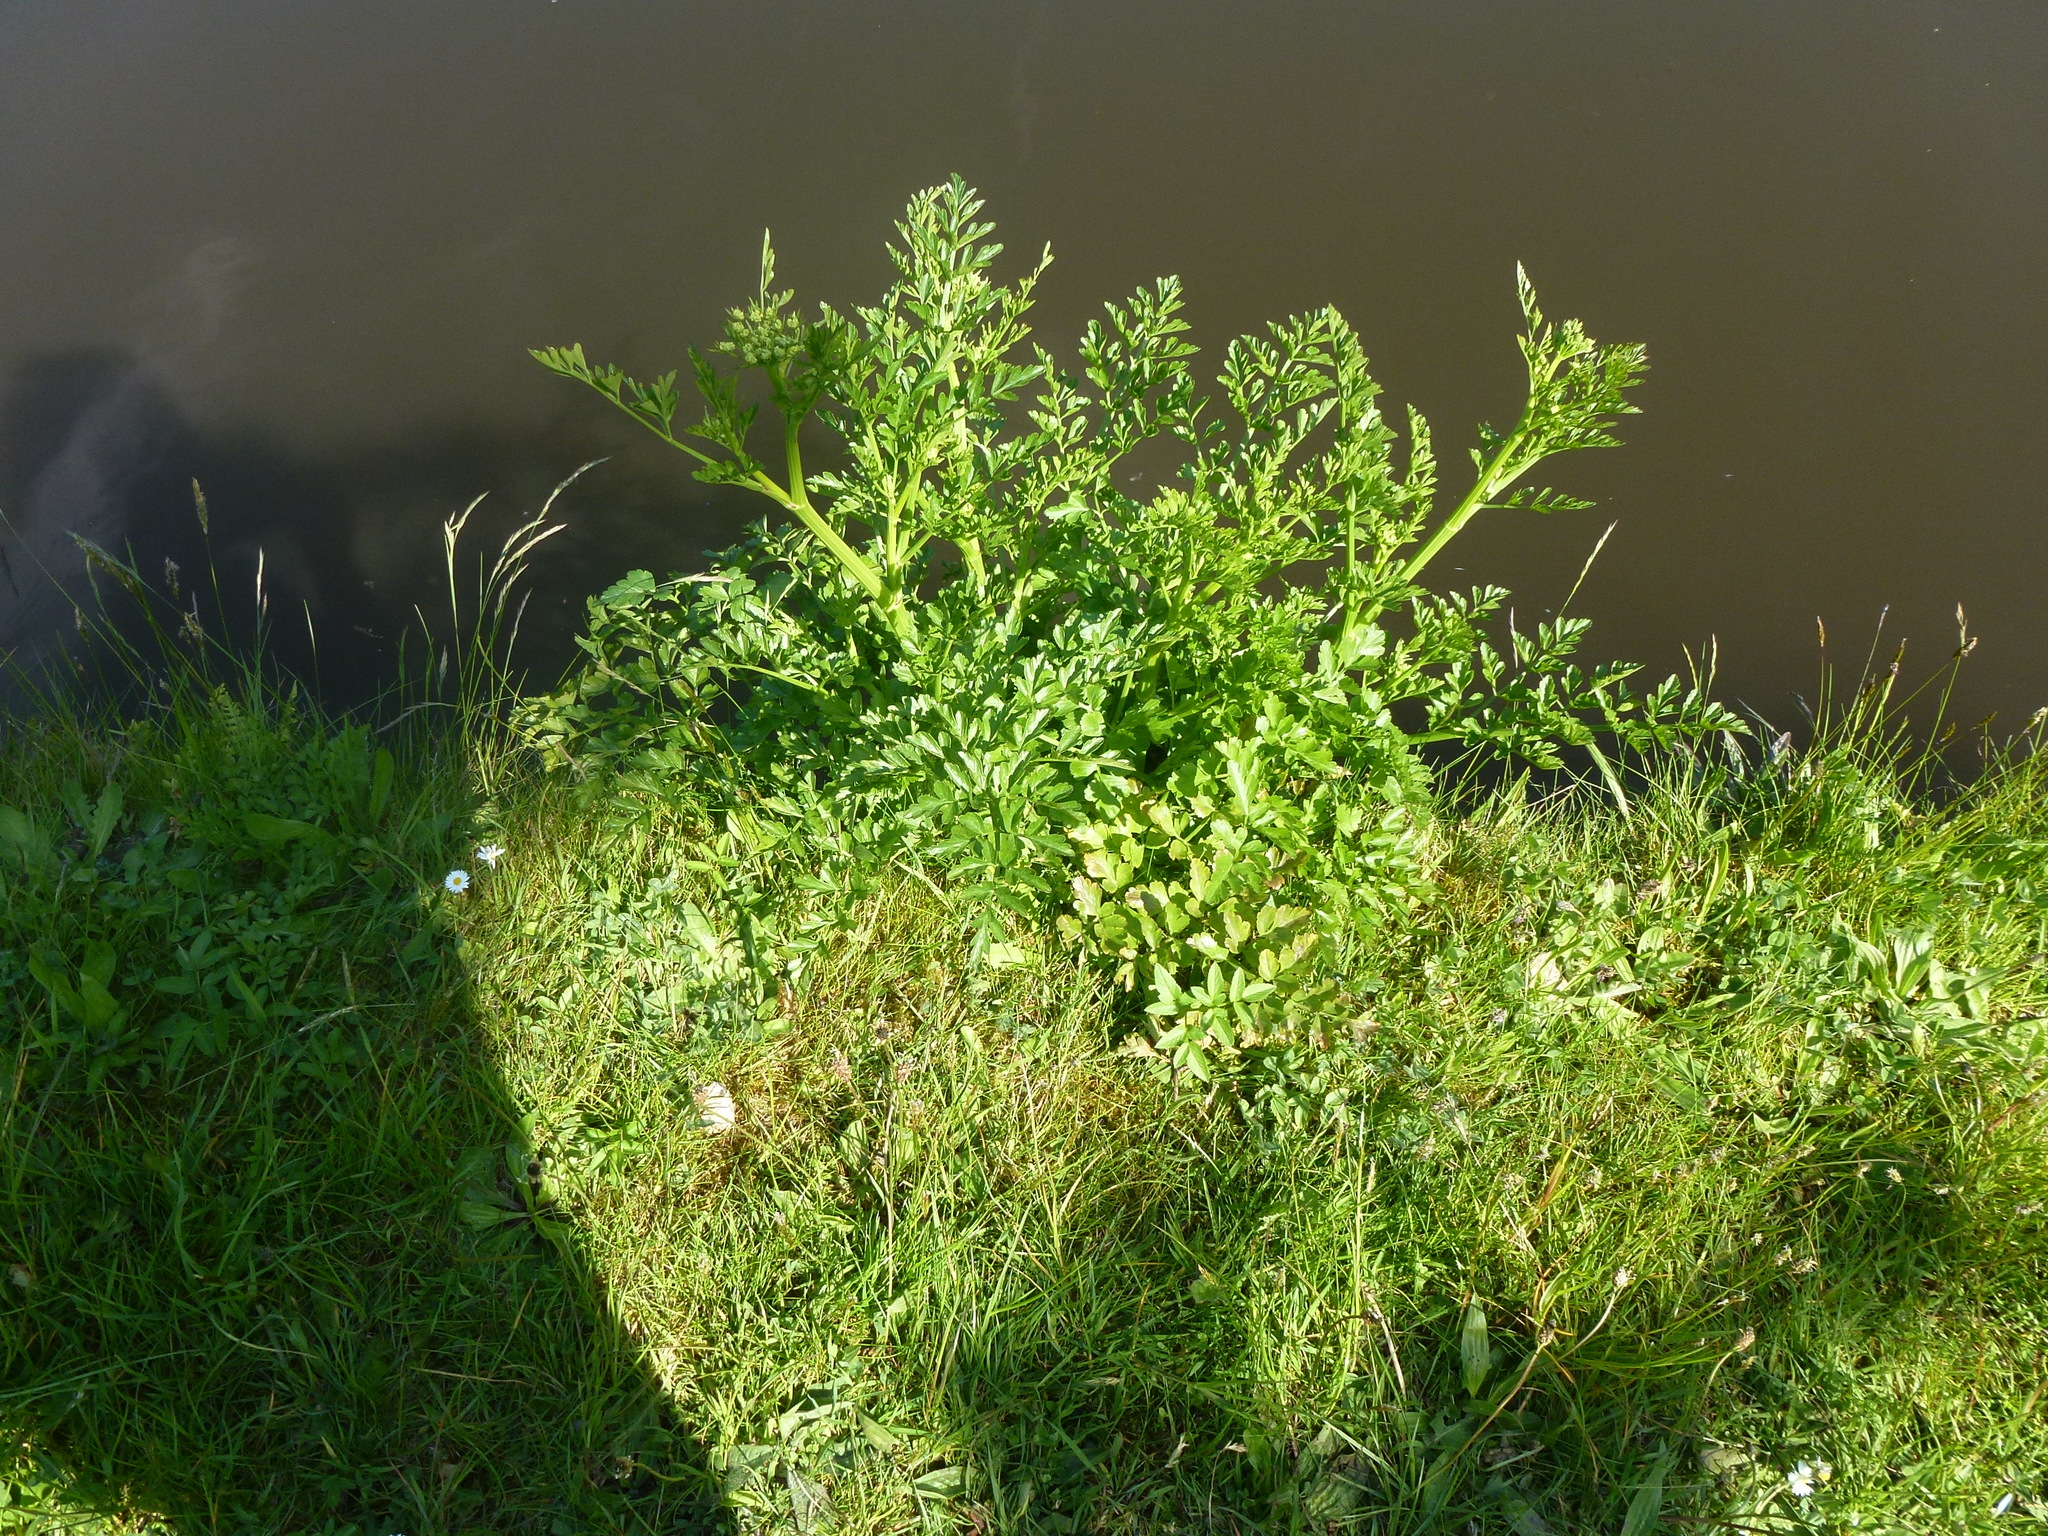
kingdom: Plantae
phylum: Tracheophyta
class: Magnoliopsida
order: Apiales
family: Apiaceae
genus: Oenanthe
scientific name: Oenanthe crocata
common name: Hemlock water-dropwort
